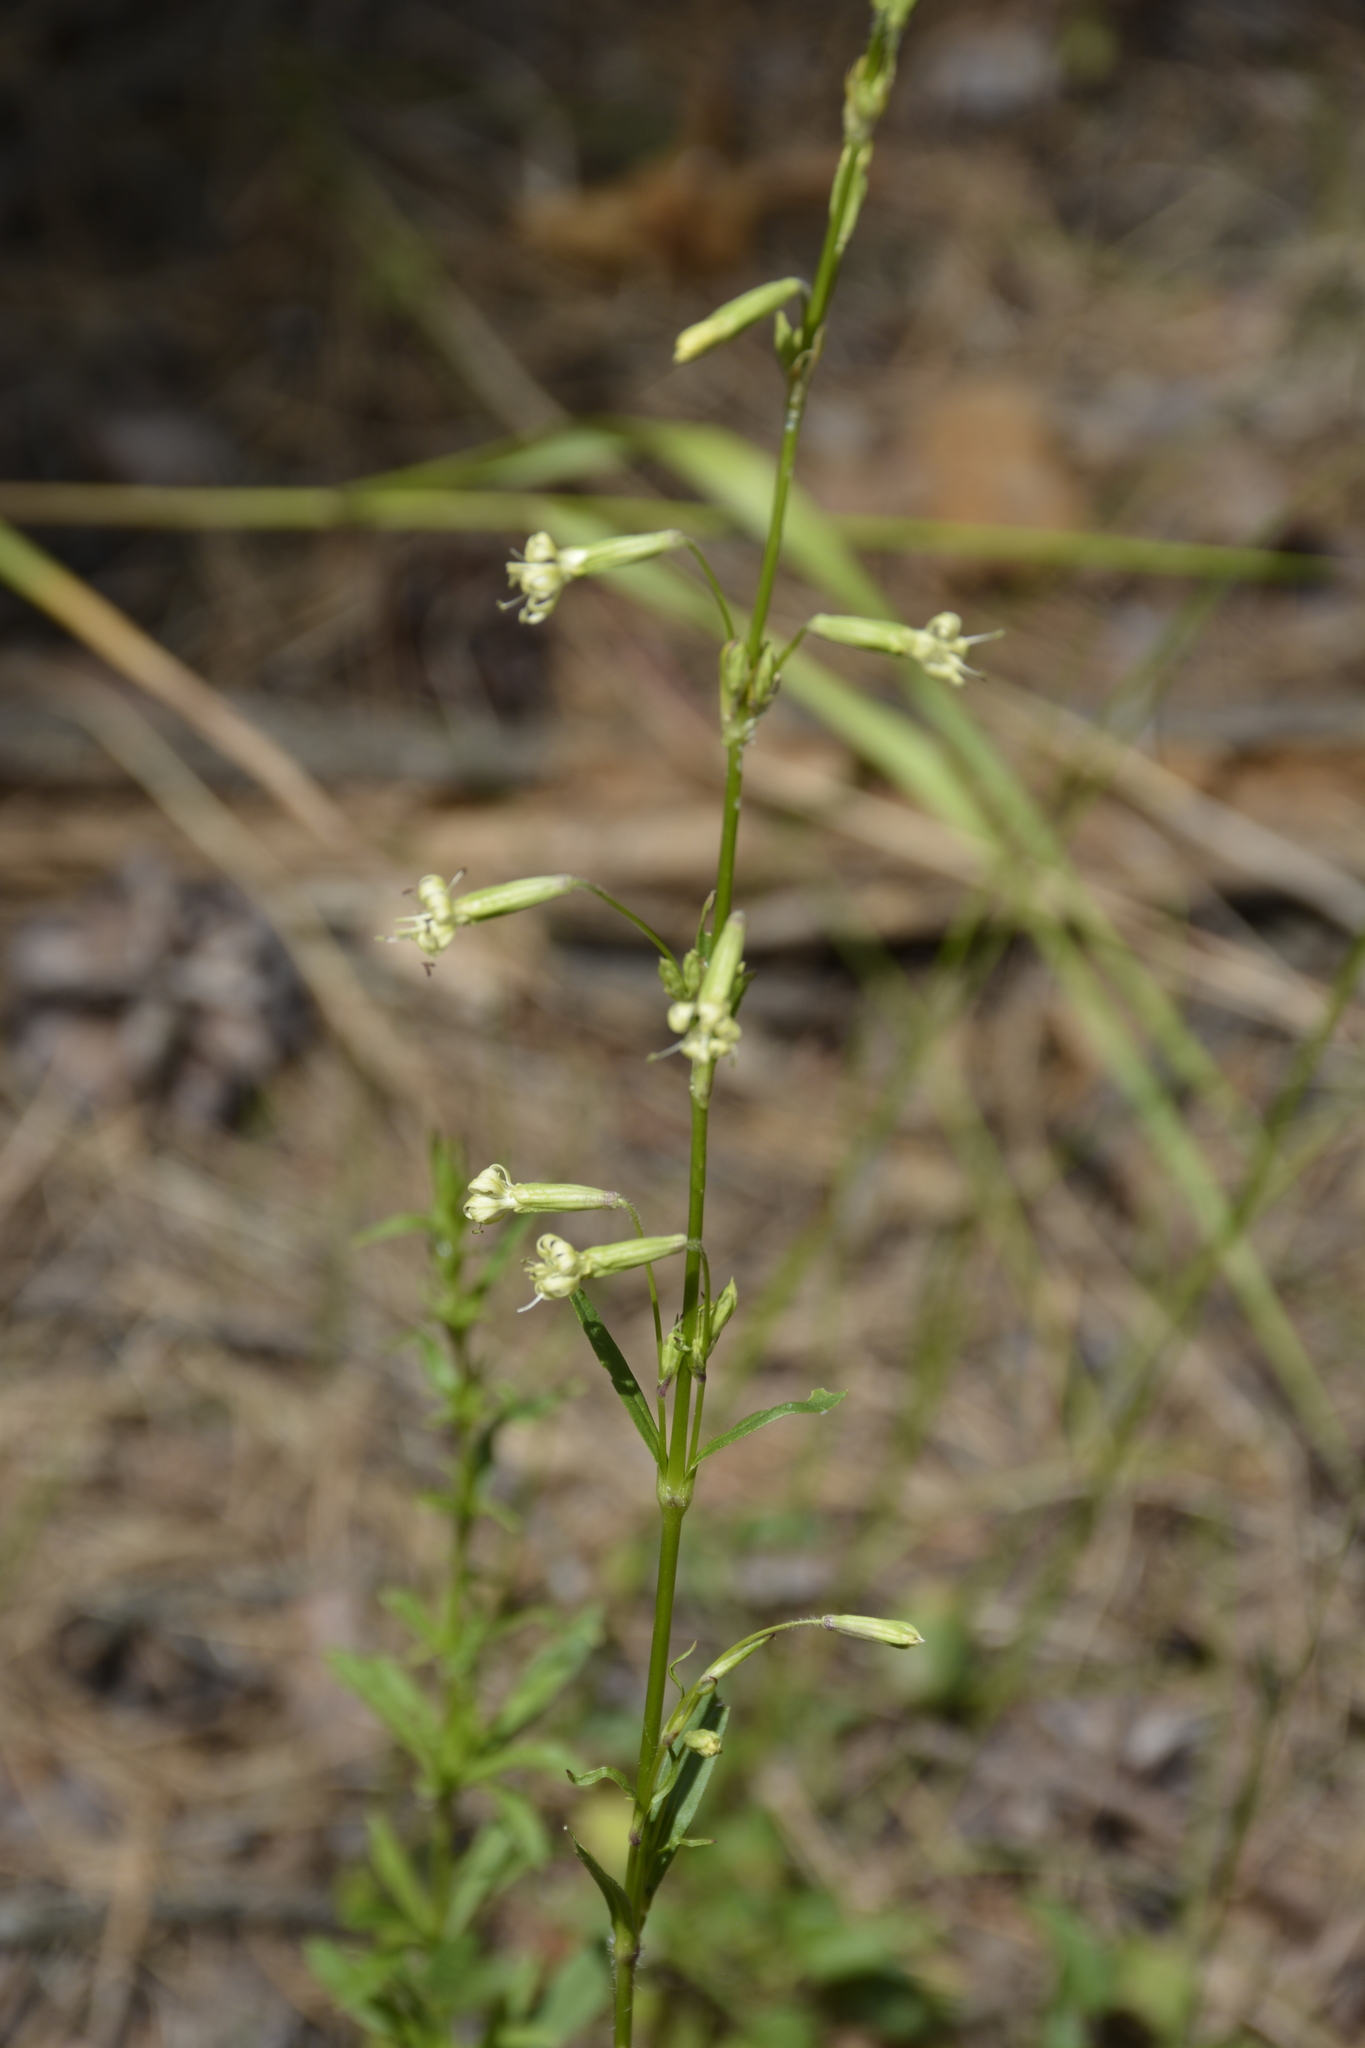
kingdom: Plantae
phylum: Tracheophyta
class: Magnoliopsida
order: Caryophyllales
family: Caryophyllaceae
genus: Silene
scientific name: Silene tatarica
